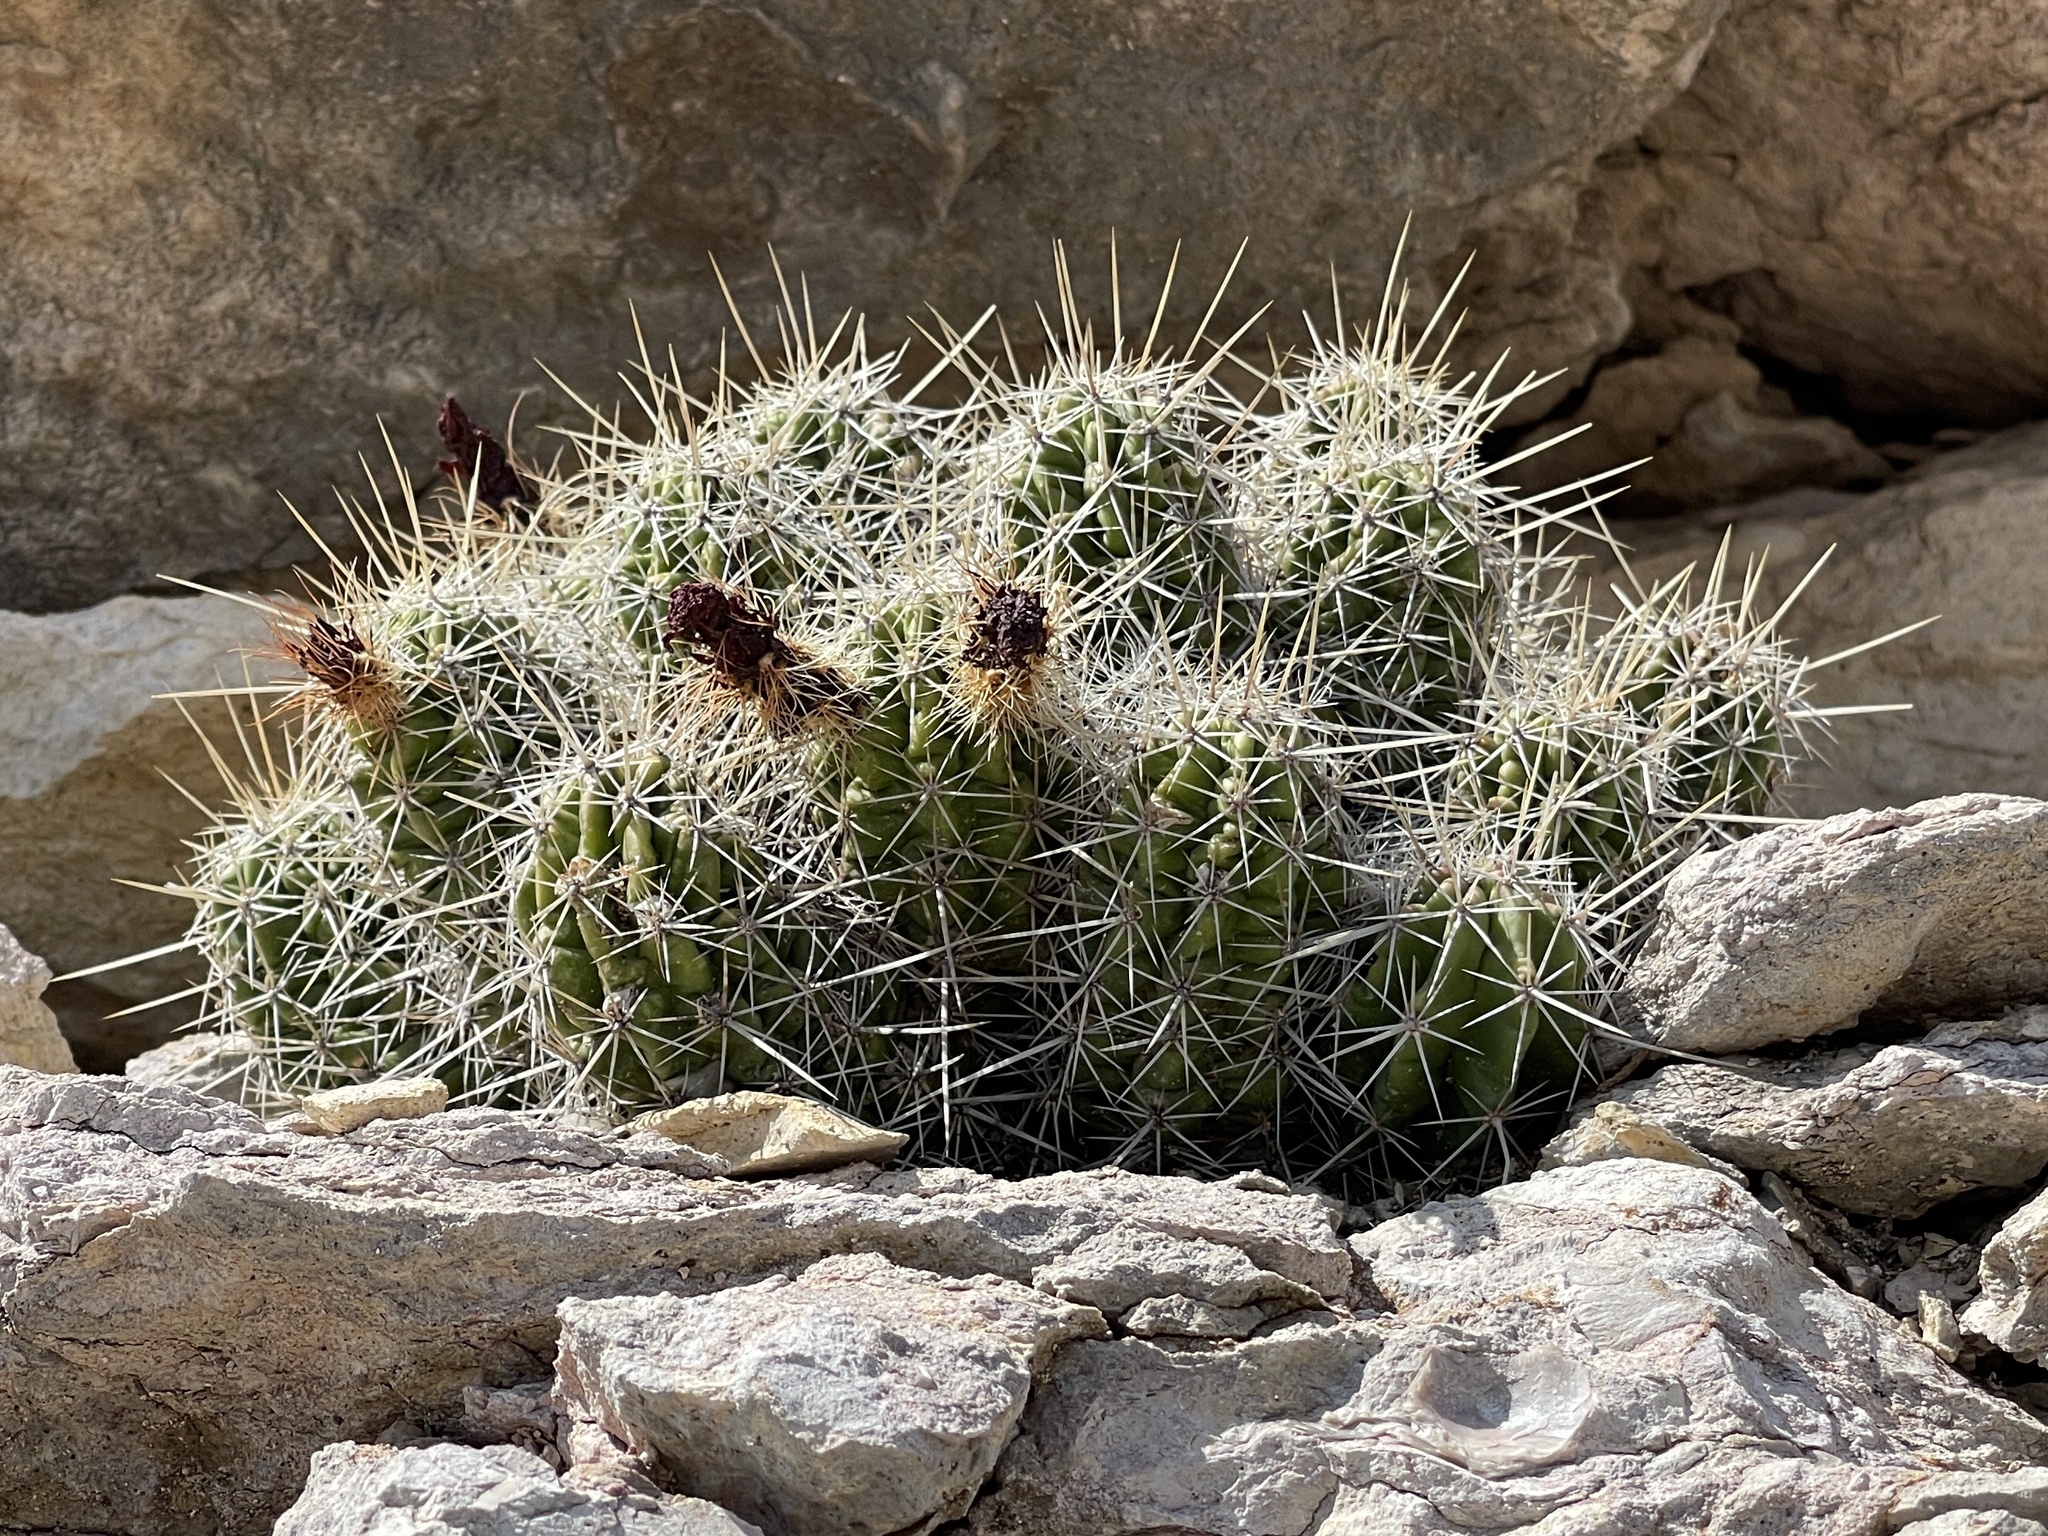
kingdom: Plantae
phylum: Tracheophyta
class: Magnoliopsida
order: Caryophyllales
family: Cactaceae
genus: Echinocereus
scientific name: Echinocereus enneacanthus
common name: Pitaya
